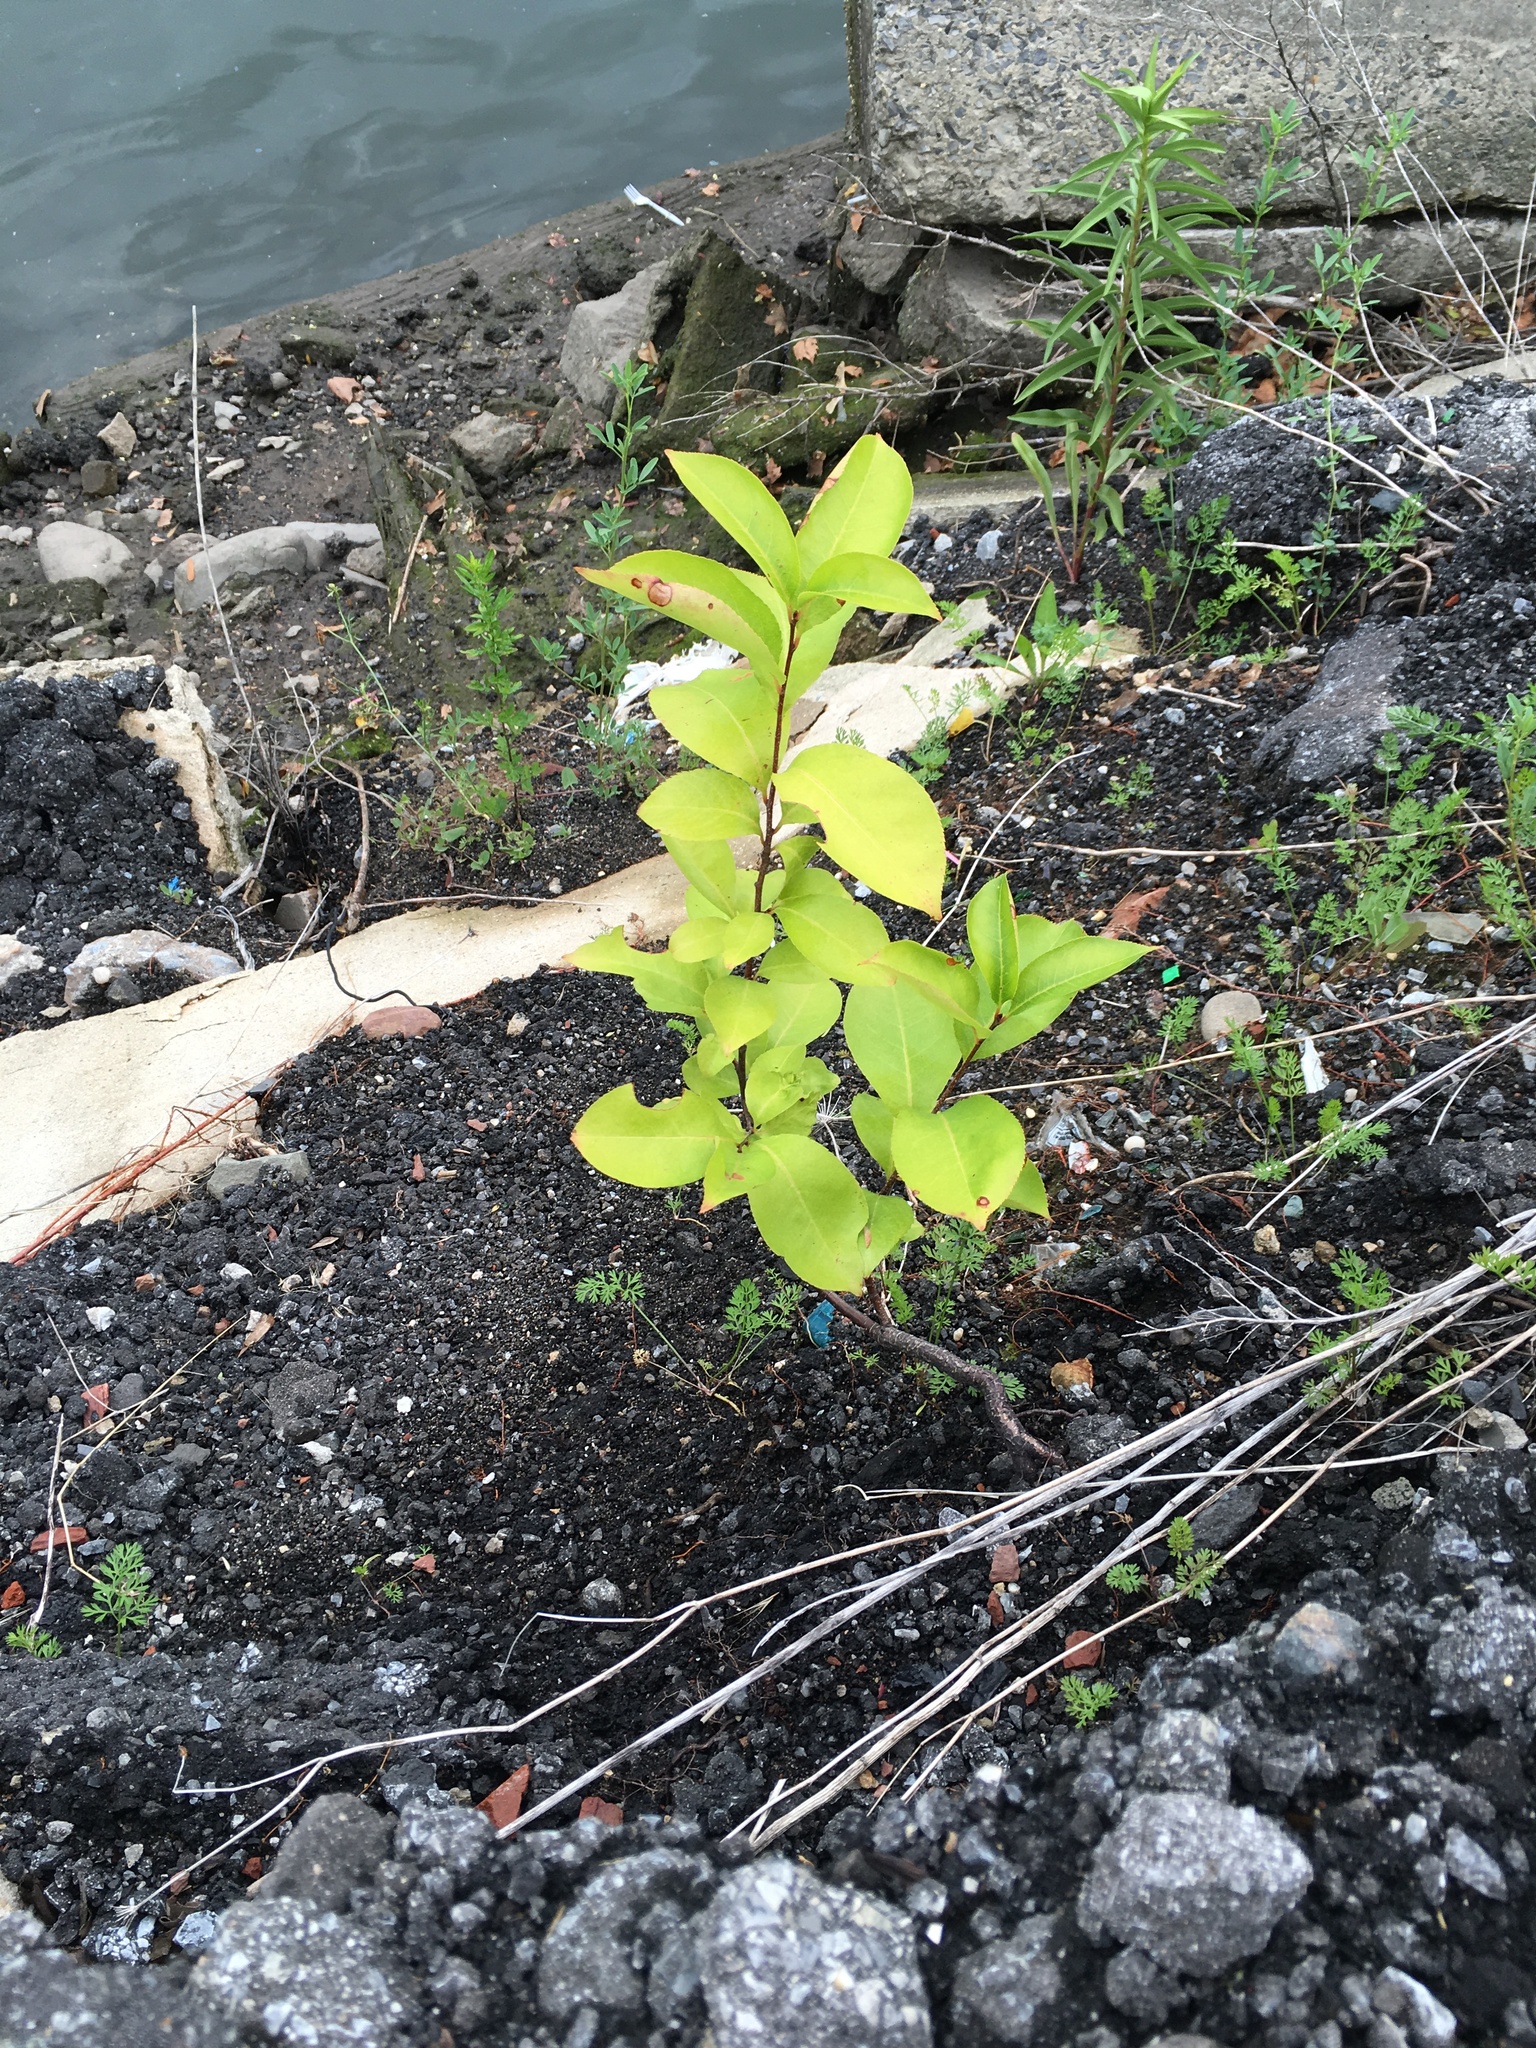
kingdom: Plantae
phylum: Tracheophyta
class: Magnoliopsida
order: Rosales
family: Rosaceae
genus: Prunus
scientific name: Prunus serotina
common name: Black cherry
